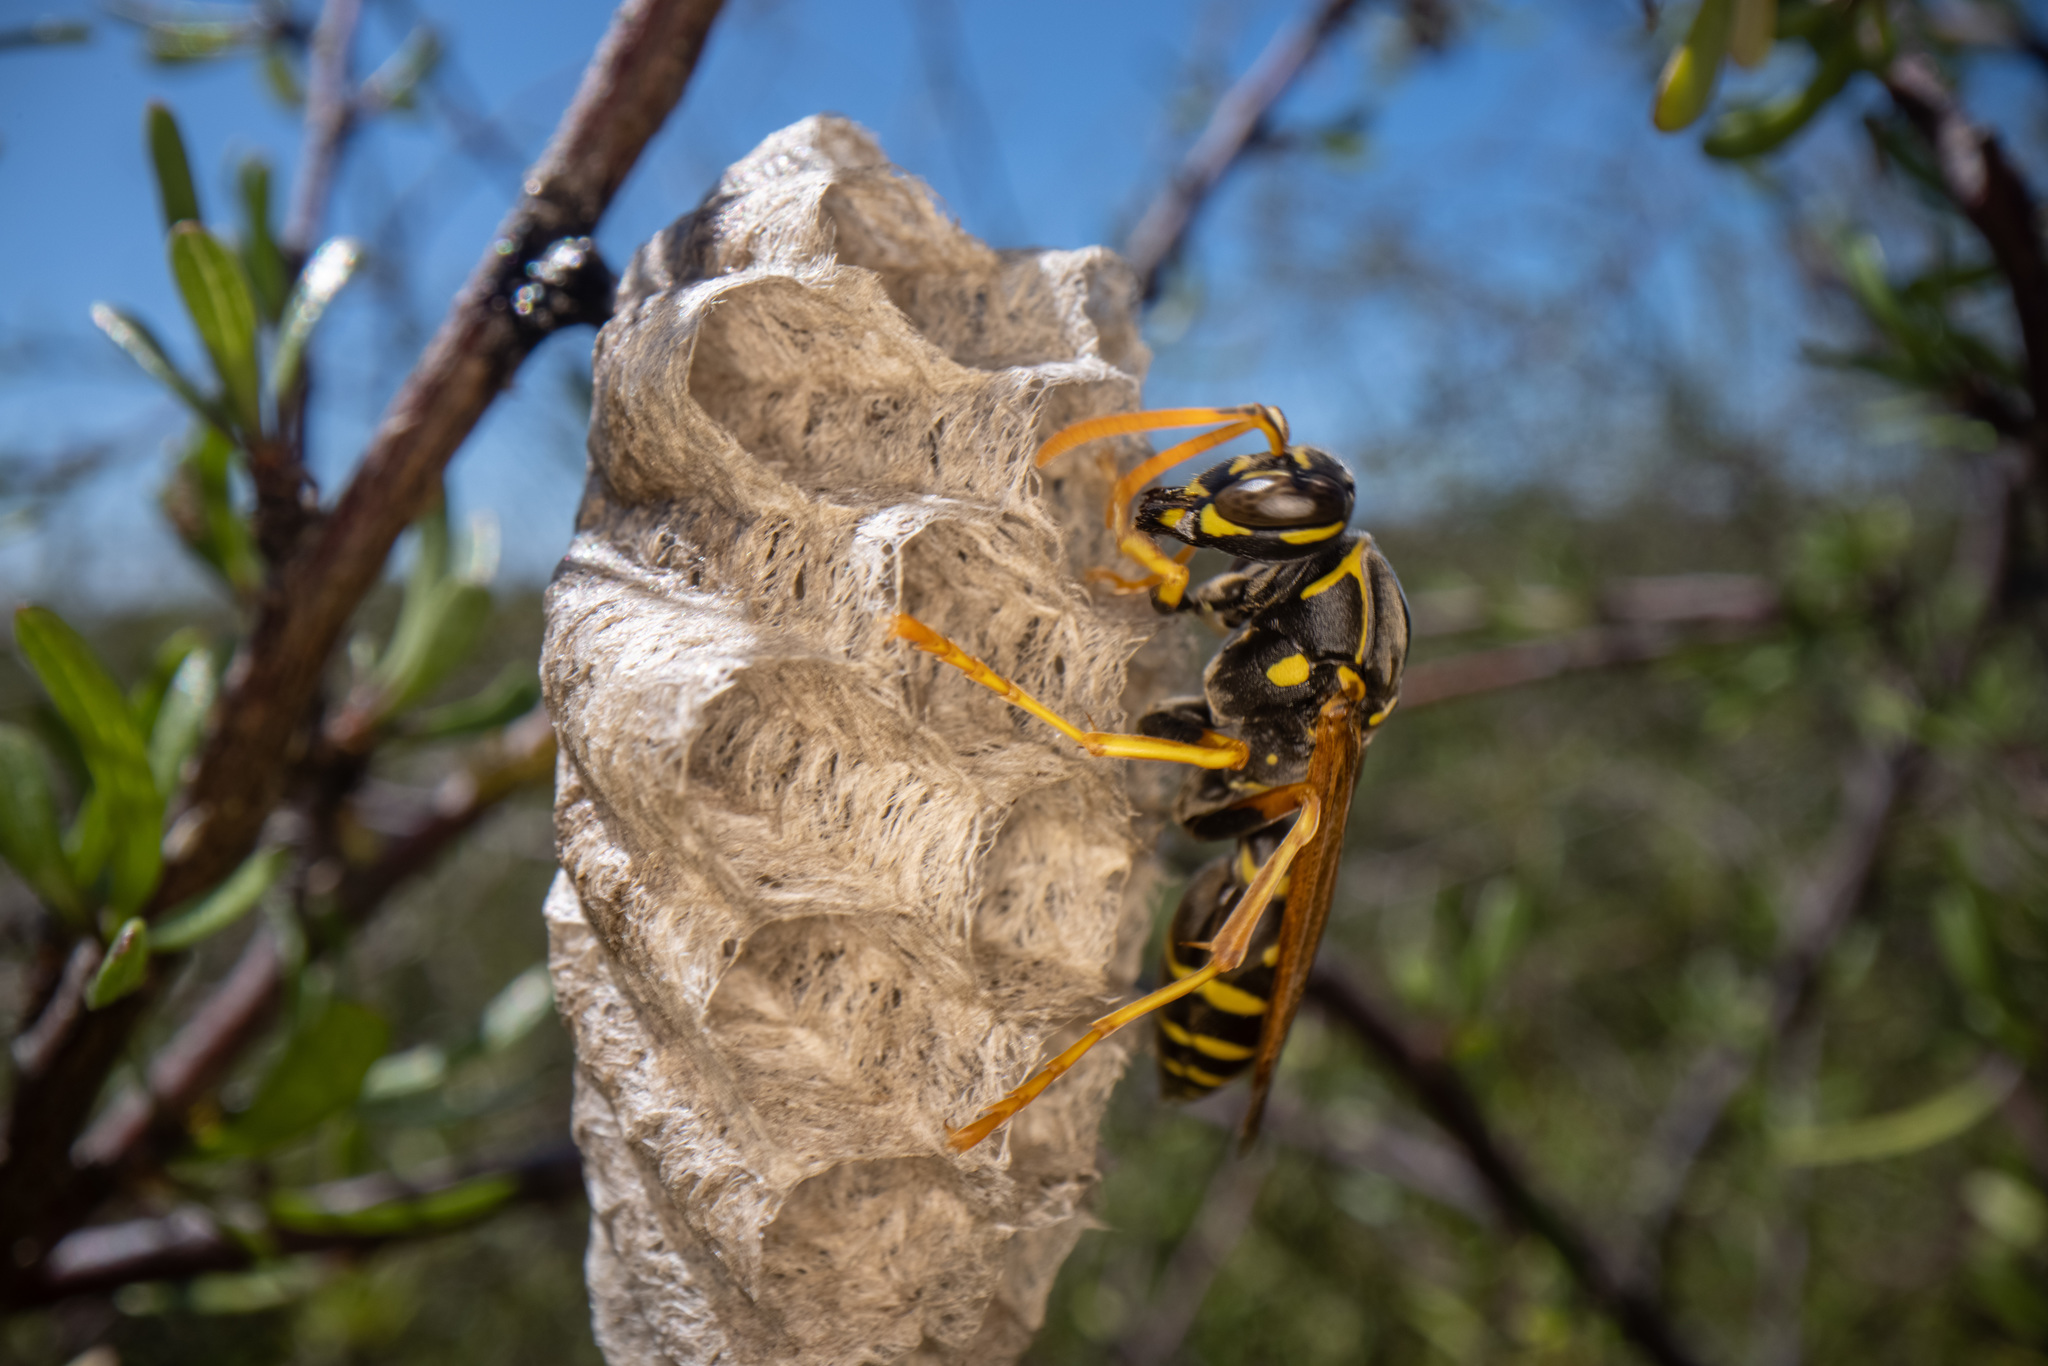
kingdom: Animalia
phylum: Arthropoda
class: Insecta
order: Hymenoptera
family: Eumenidae
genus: Polistes
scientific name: Polistes chinensis
